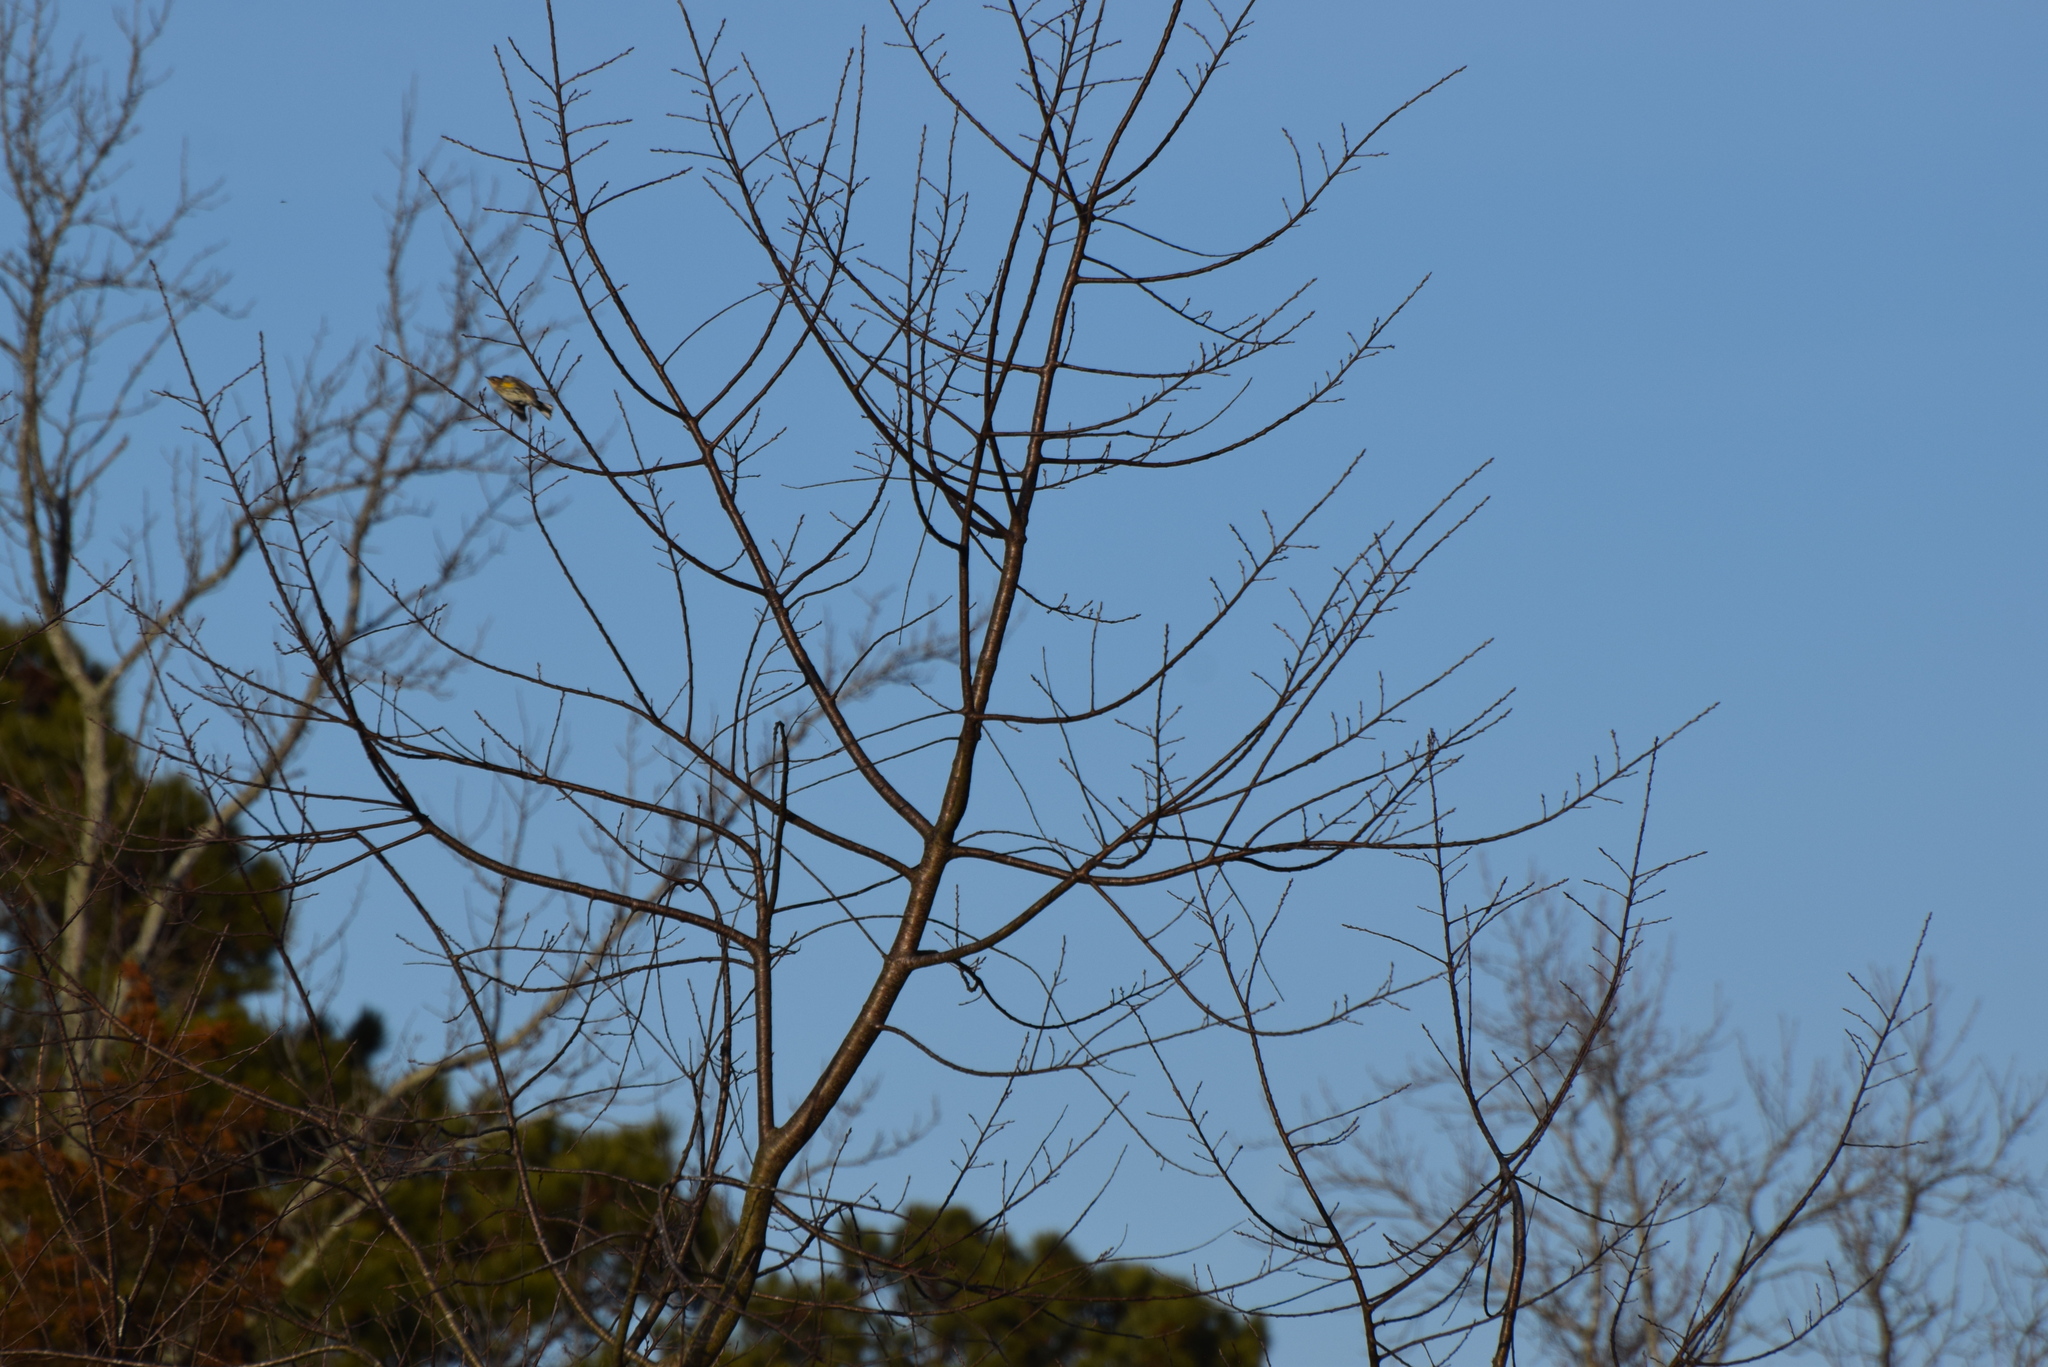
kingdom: Animalia
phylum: Chordata
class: Aves
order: Passeriformes
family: Parulidae
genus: Setophaga
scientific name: Setophaga coronata
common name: Myrtle warbler
